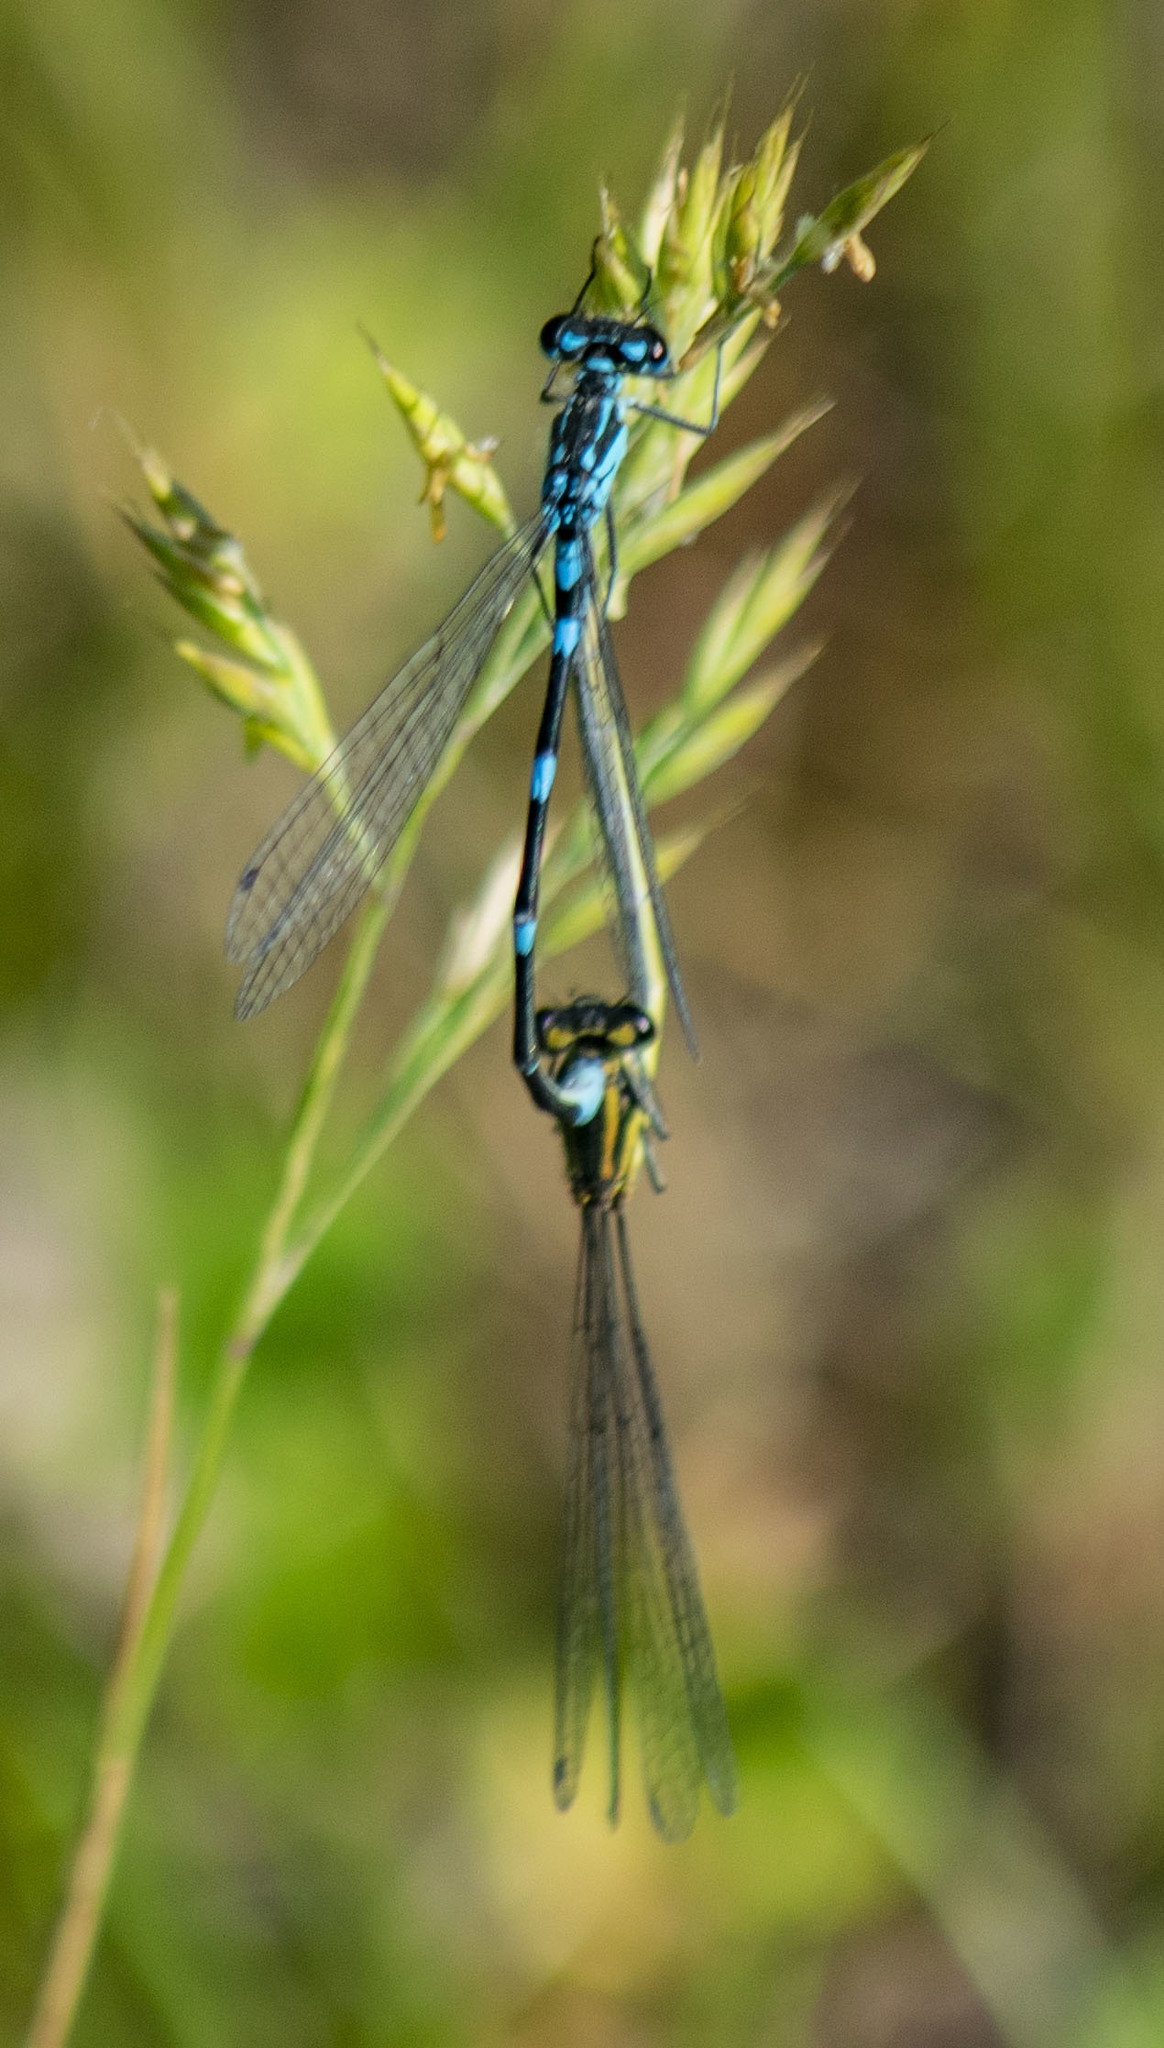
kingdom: Animalia
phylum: Arthropoda
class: Insecta
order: Odonata
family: Coenagrionidae
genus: Coenagrion
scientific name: Coenagrion pulchellum
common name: Variable bluet
